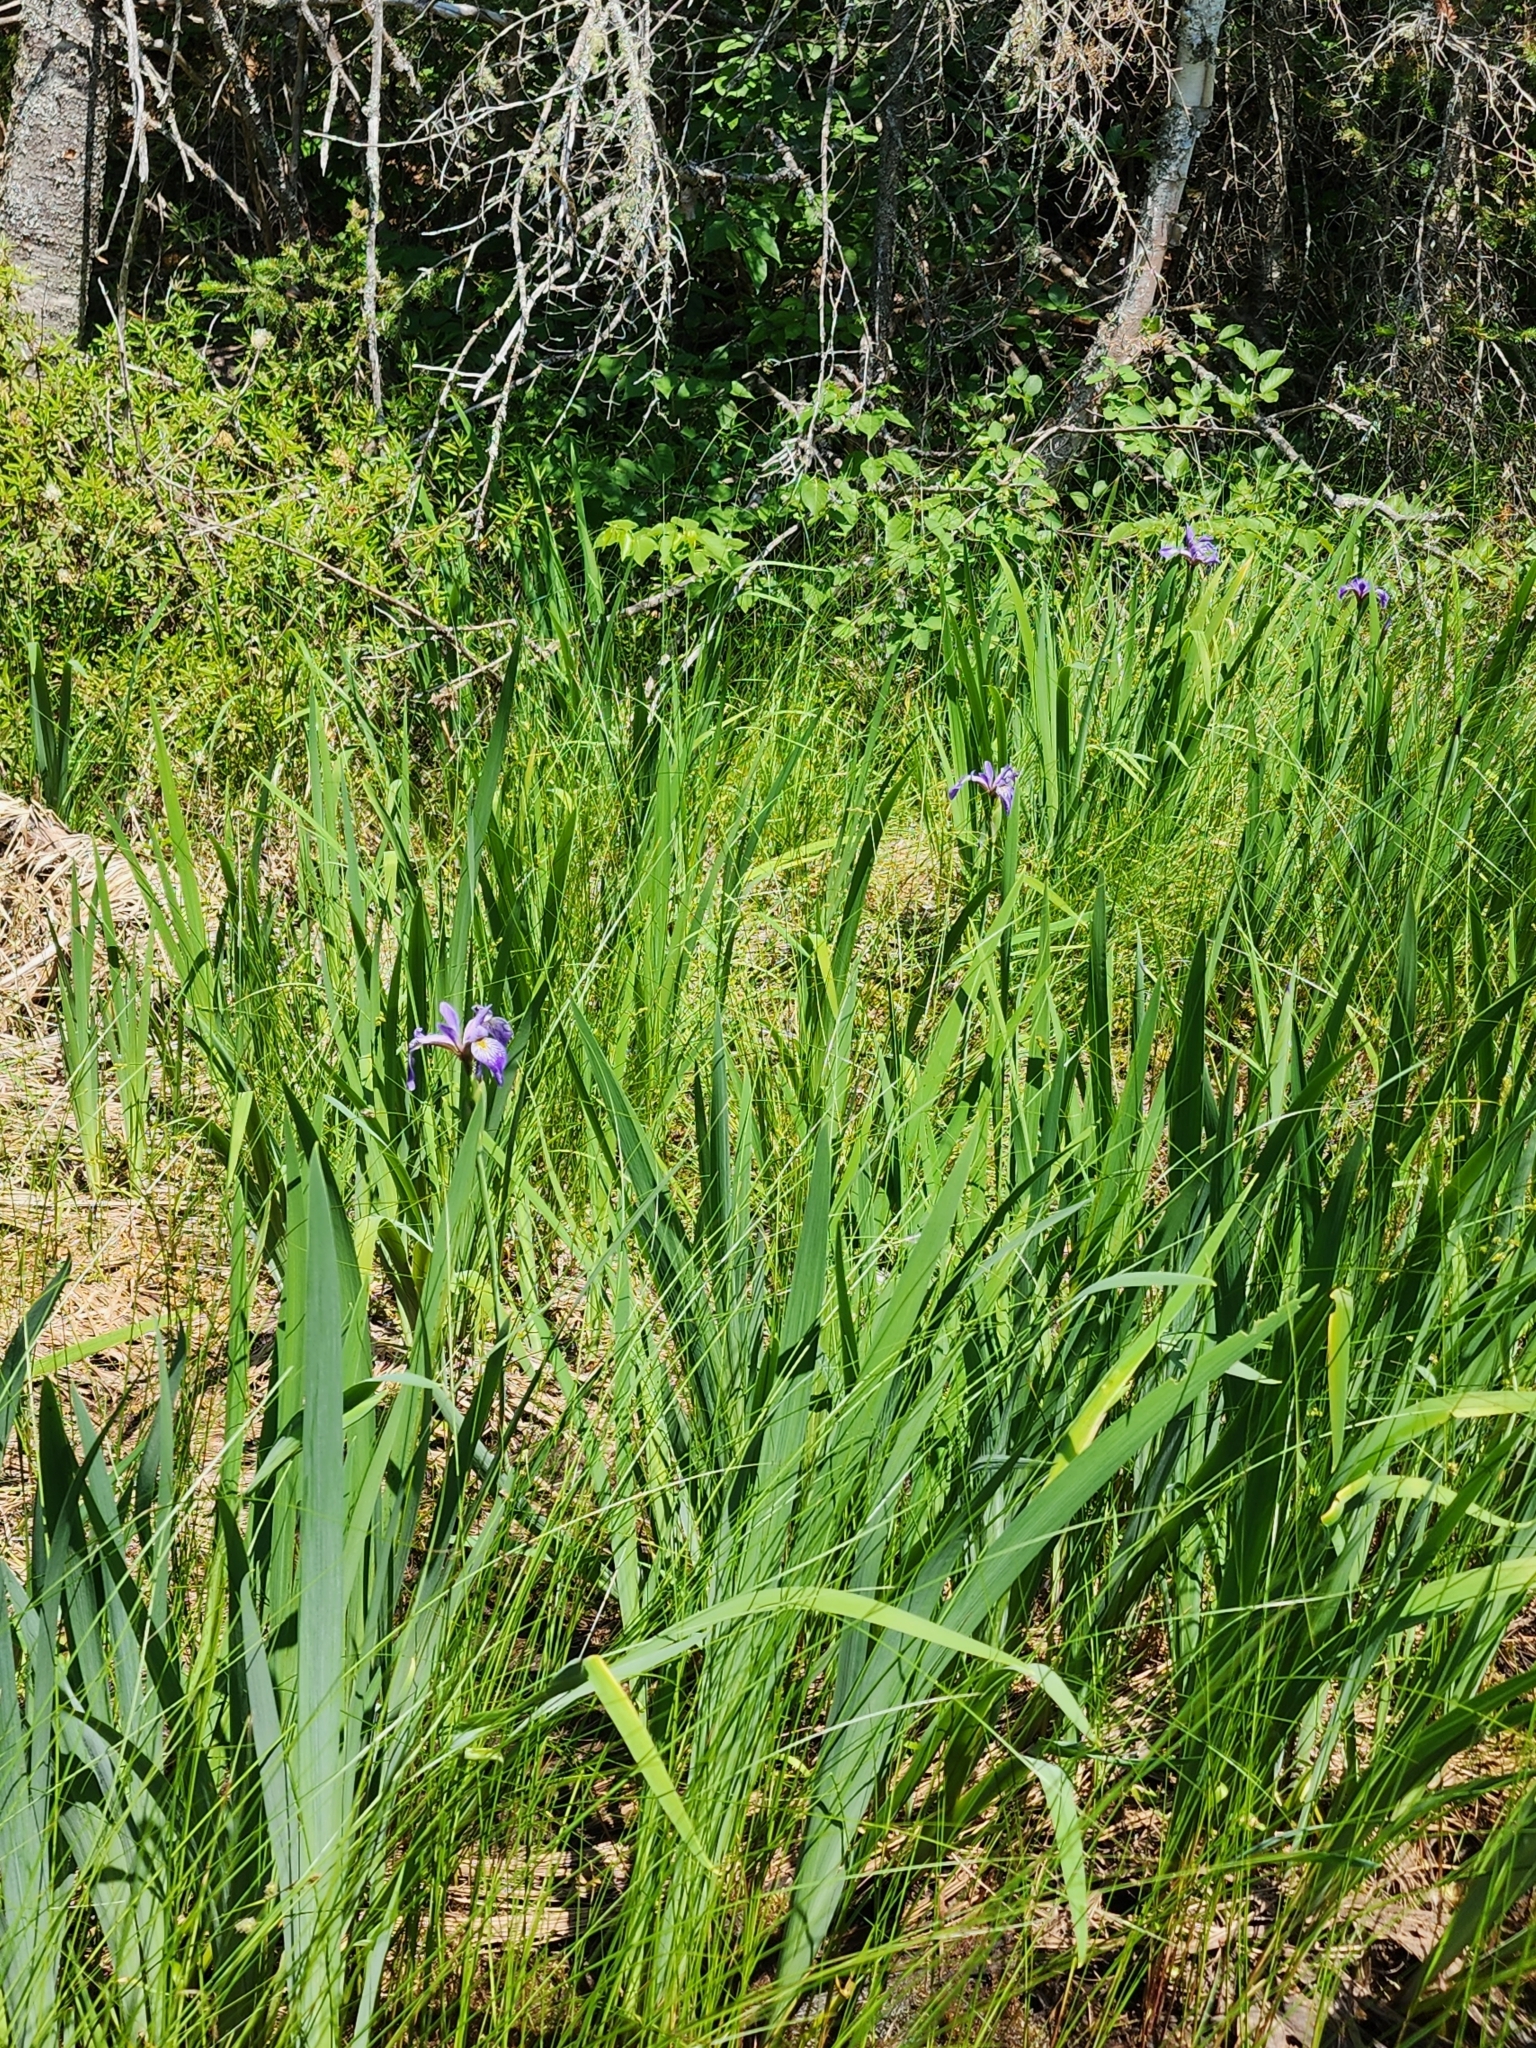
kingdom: Plantae
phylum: Tracheophyta
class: Liliopsida
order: Asparagales
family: Iridaceae
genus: Iris
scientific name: Iris versicolor
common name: Purple iris
